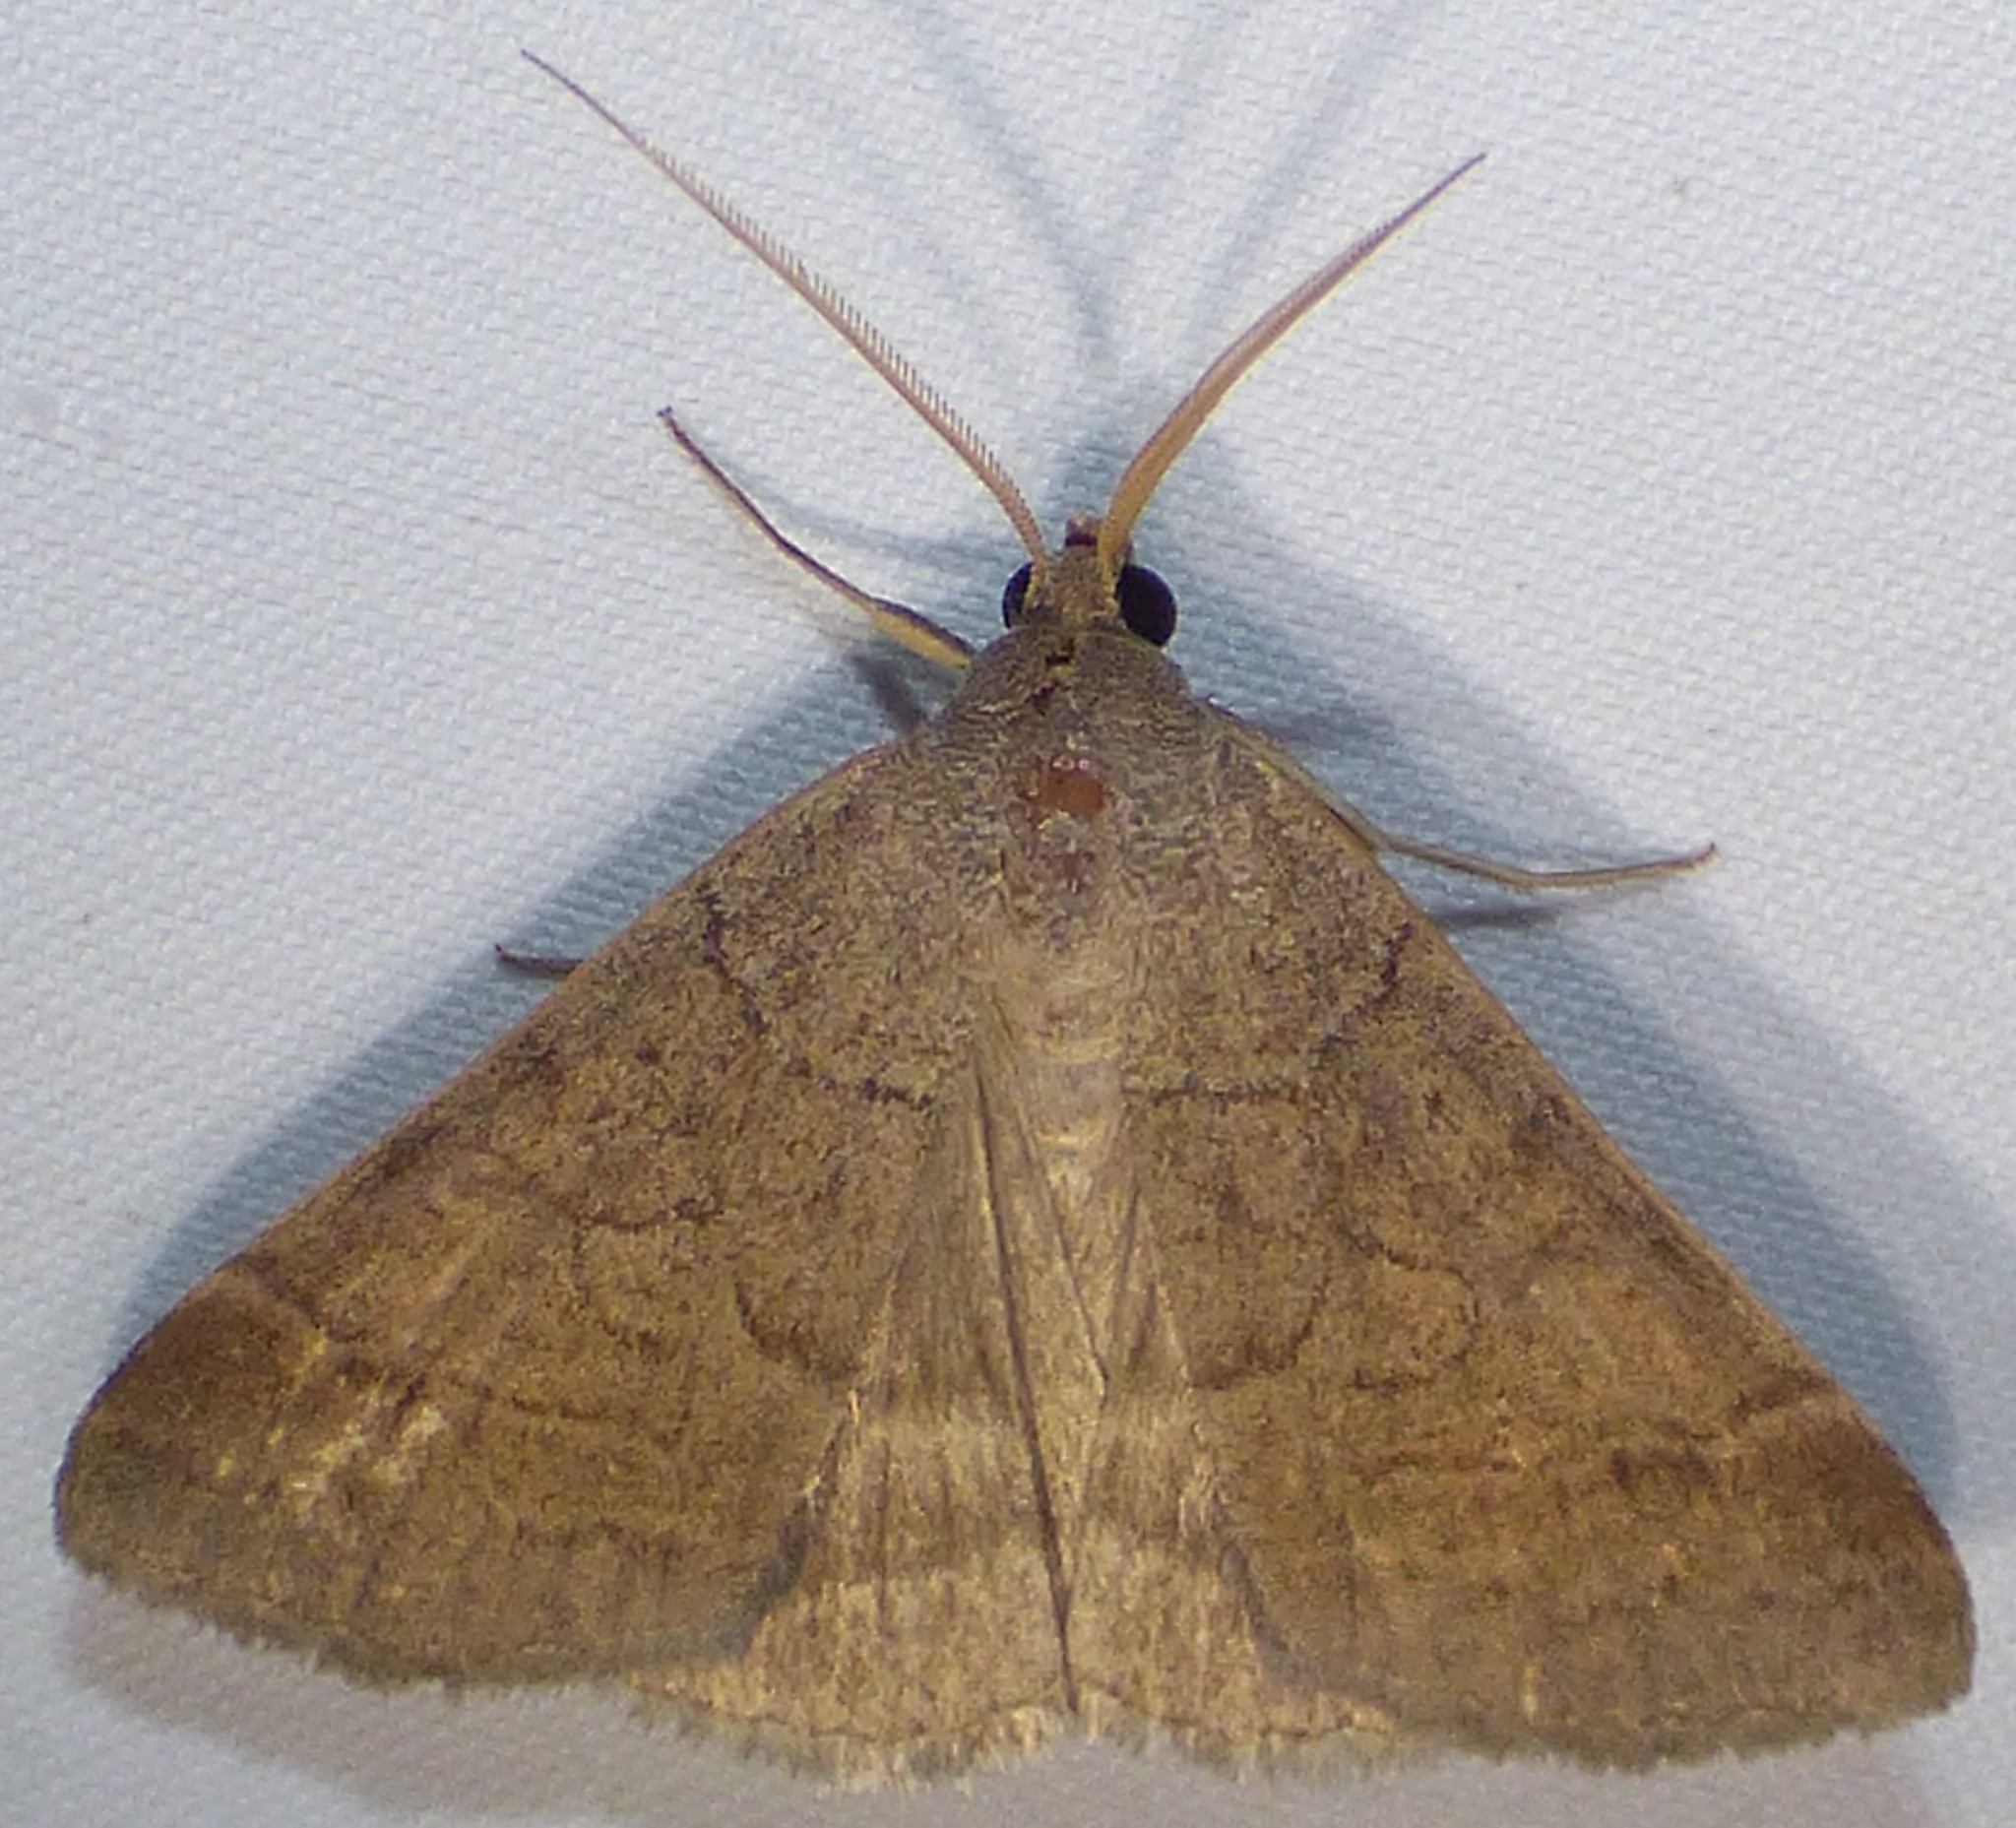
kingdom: Animalia
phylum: Arthropoda
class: Insecta
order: Lepidoptera
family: Erebidae
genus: Caenurgia
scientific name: Caenurgia chloropha
